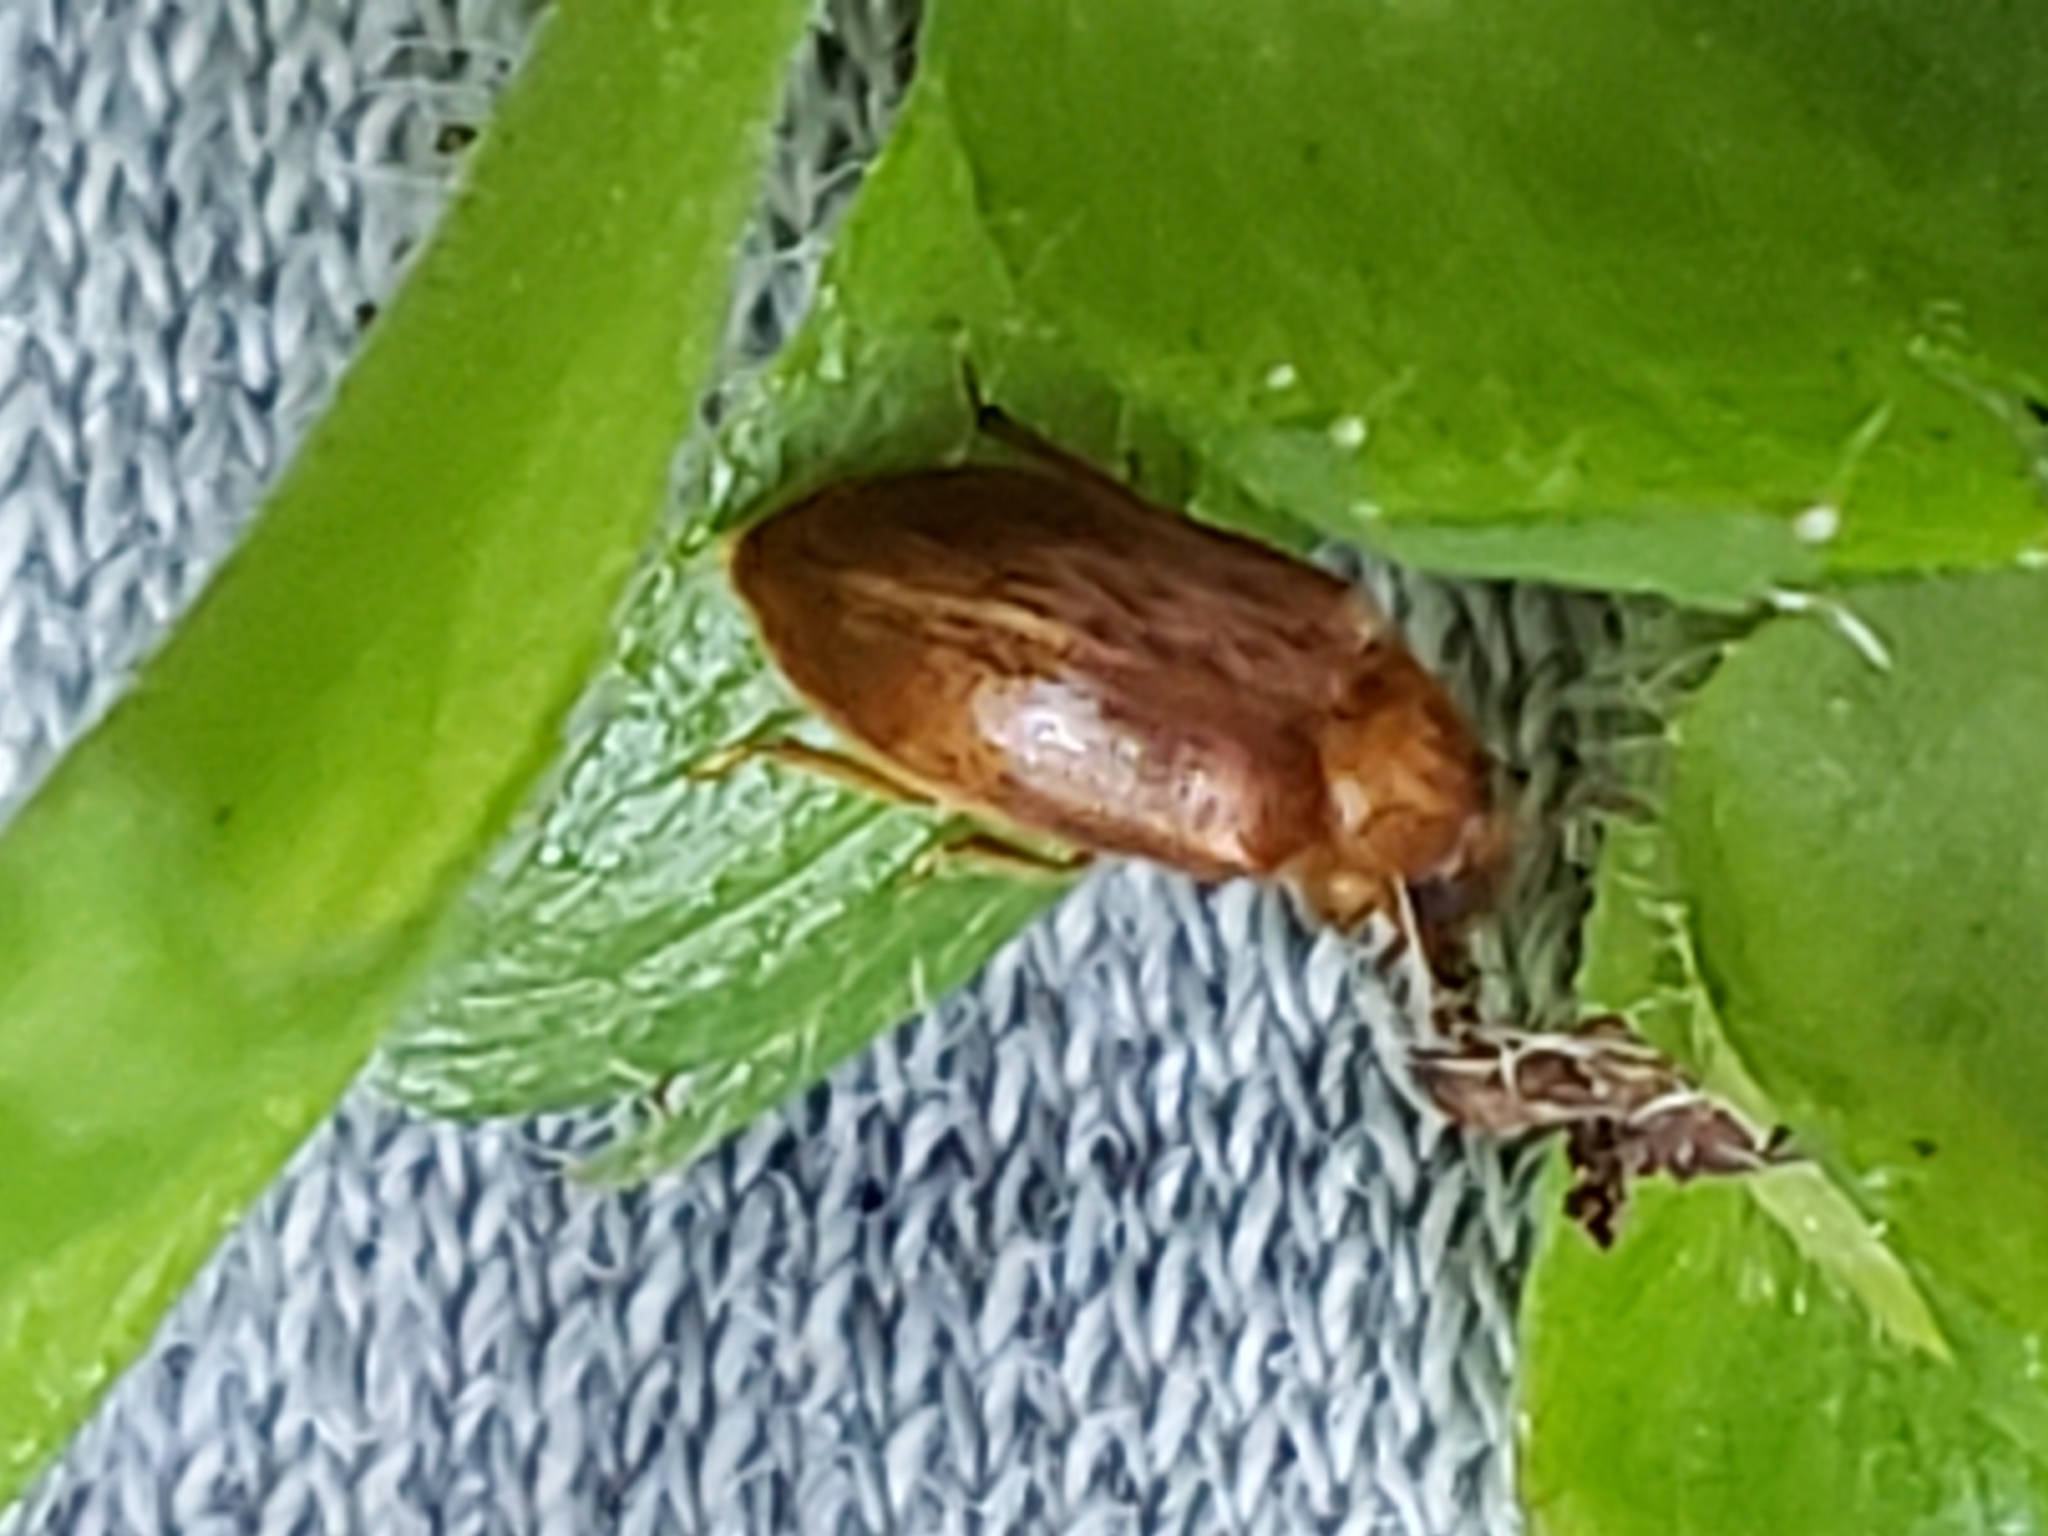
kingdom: Animalia
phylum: Arthropoda
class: Insecta
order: Coleoptera
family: Byturidae
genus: Byturus
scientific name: Byturus unicolor
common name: Raspberry fruitworm beetle
